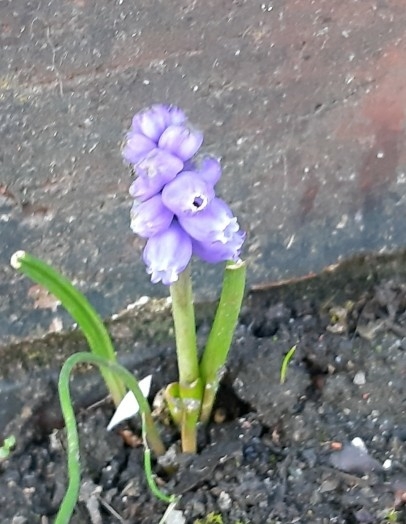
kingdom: Plantae
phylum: Tracheophyta
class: Liliopsida
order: Asparagales
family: Asparagaceae
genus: Muscari
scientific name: Muscari armeniacum
